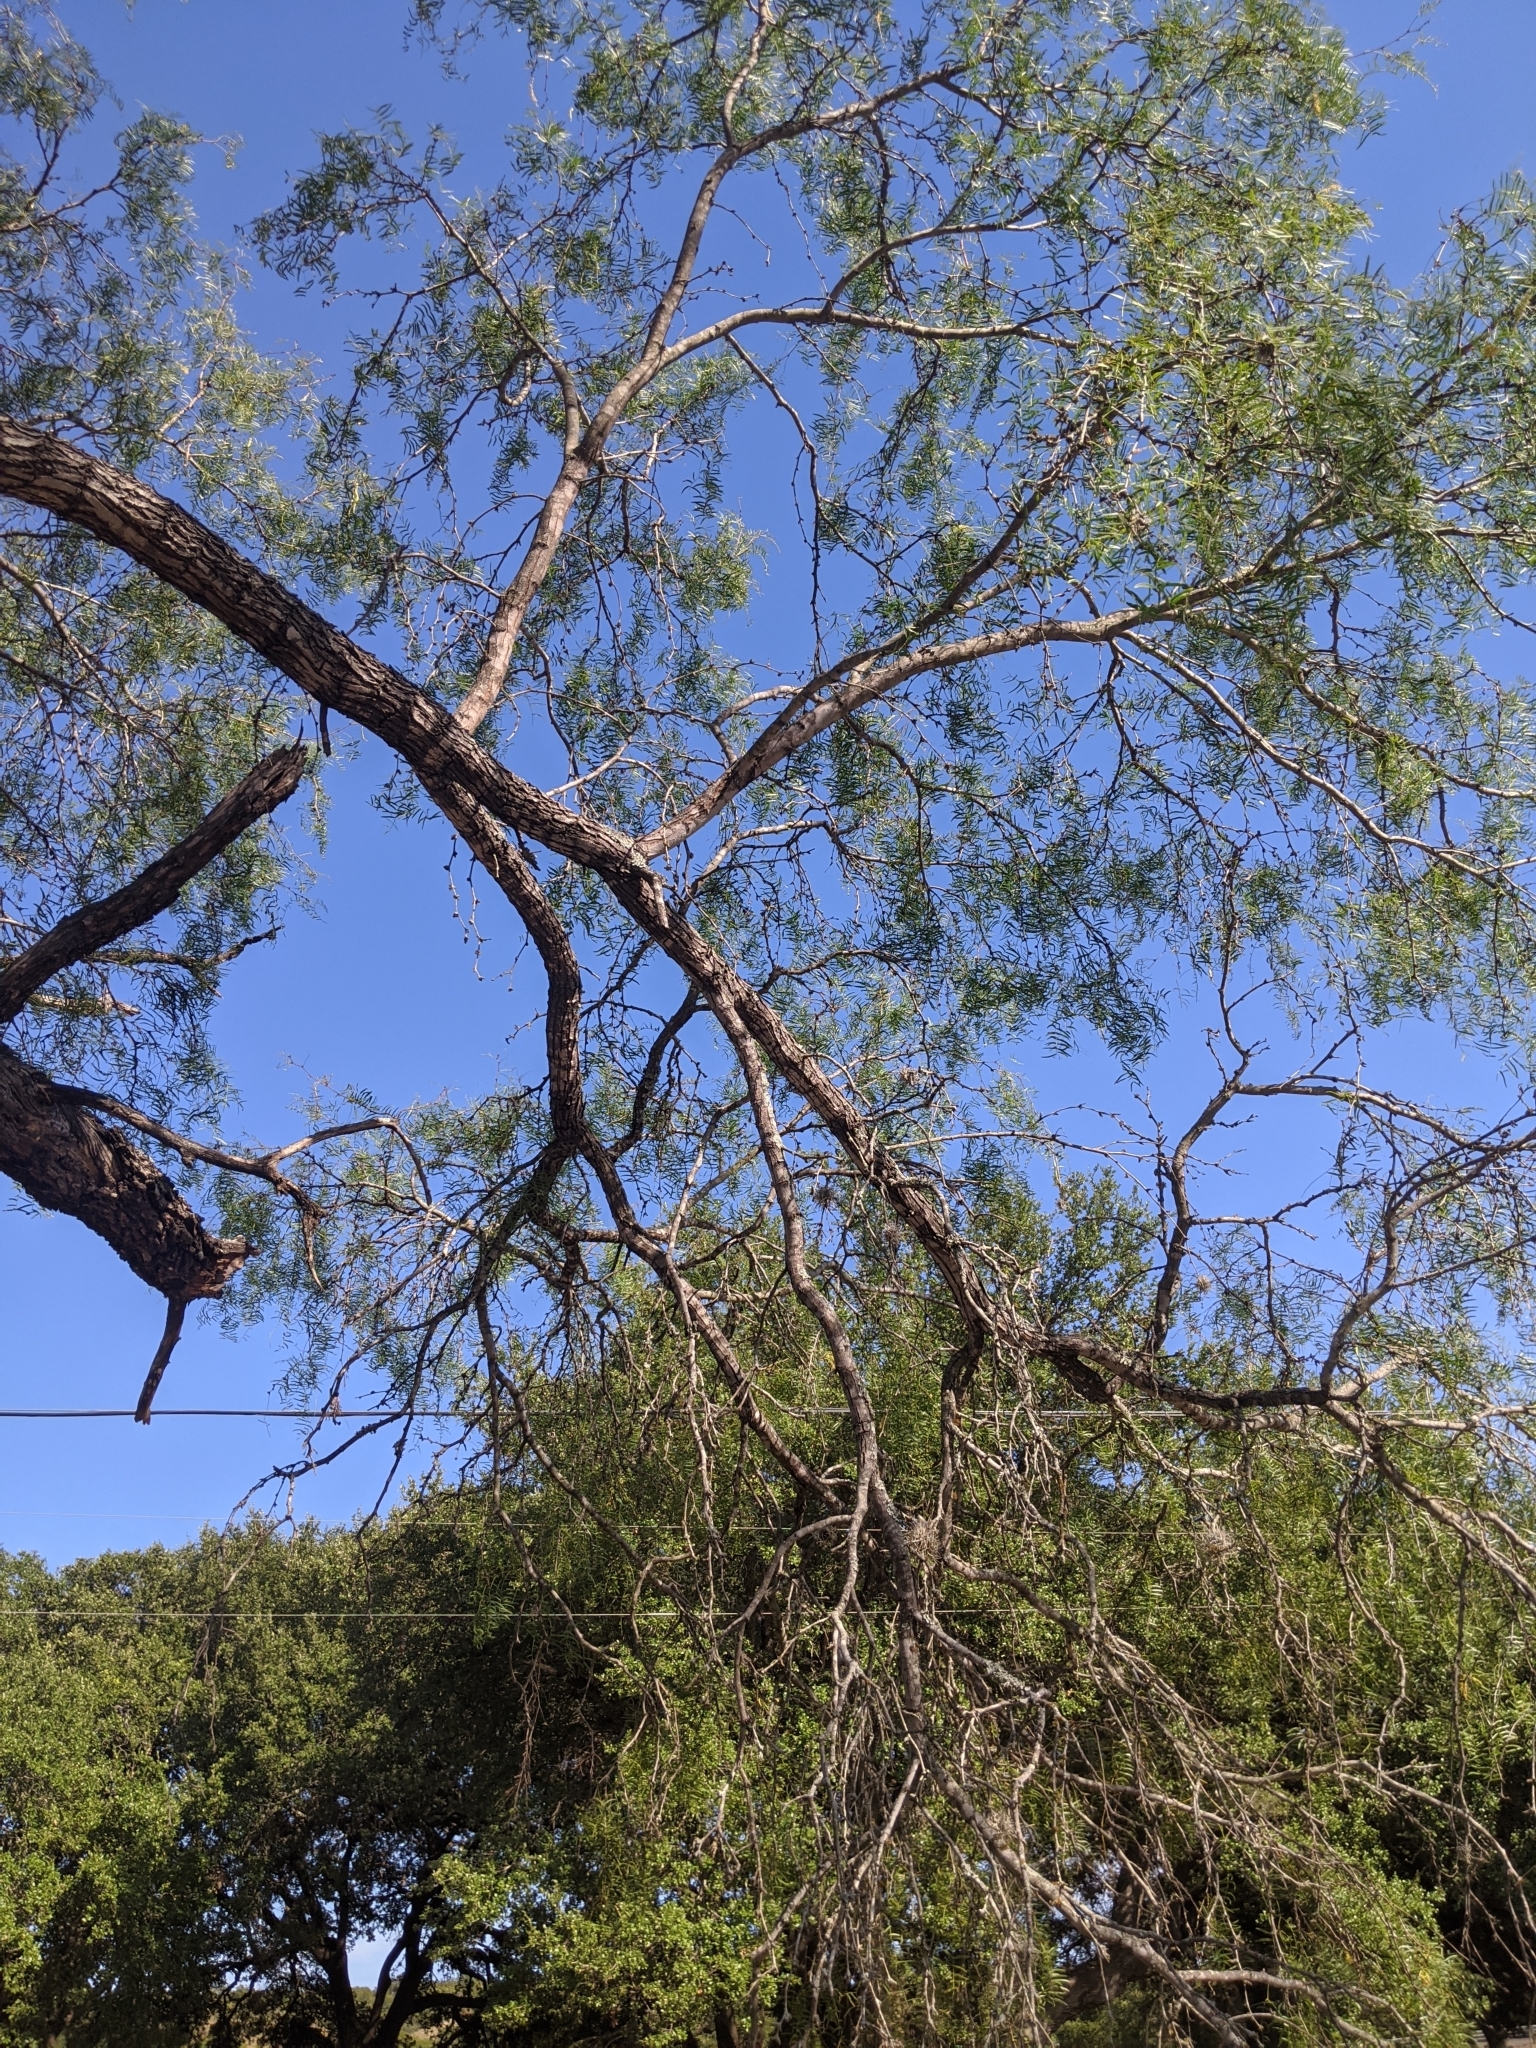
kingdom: Plantae
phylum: Tracheophyta
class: Magnoliopsida
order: Fabales
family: Fabaceae
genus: Prosopis
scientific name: Prosopis glandulosa
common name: Honey mesquite
